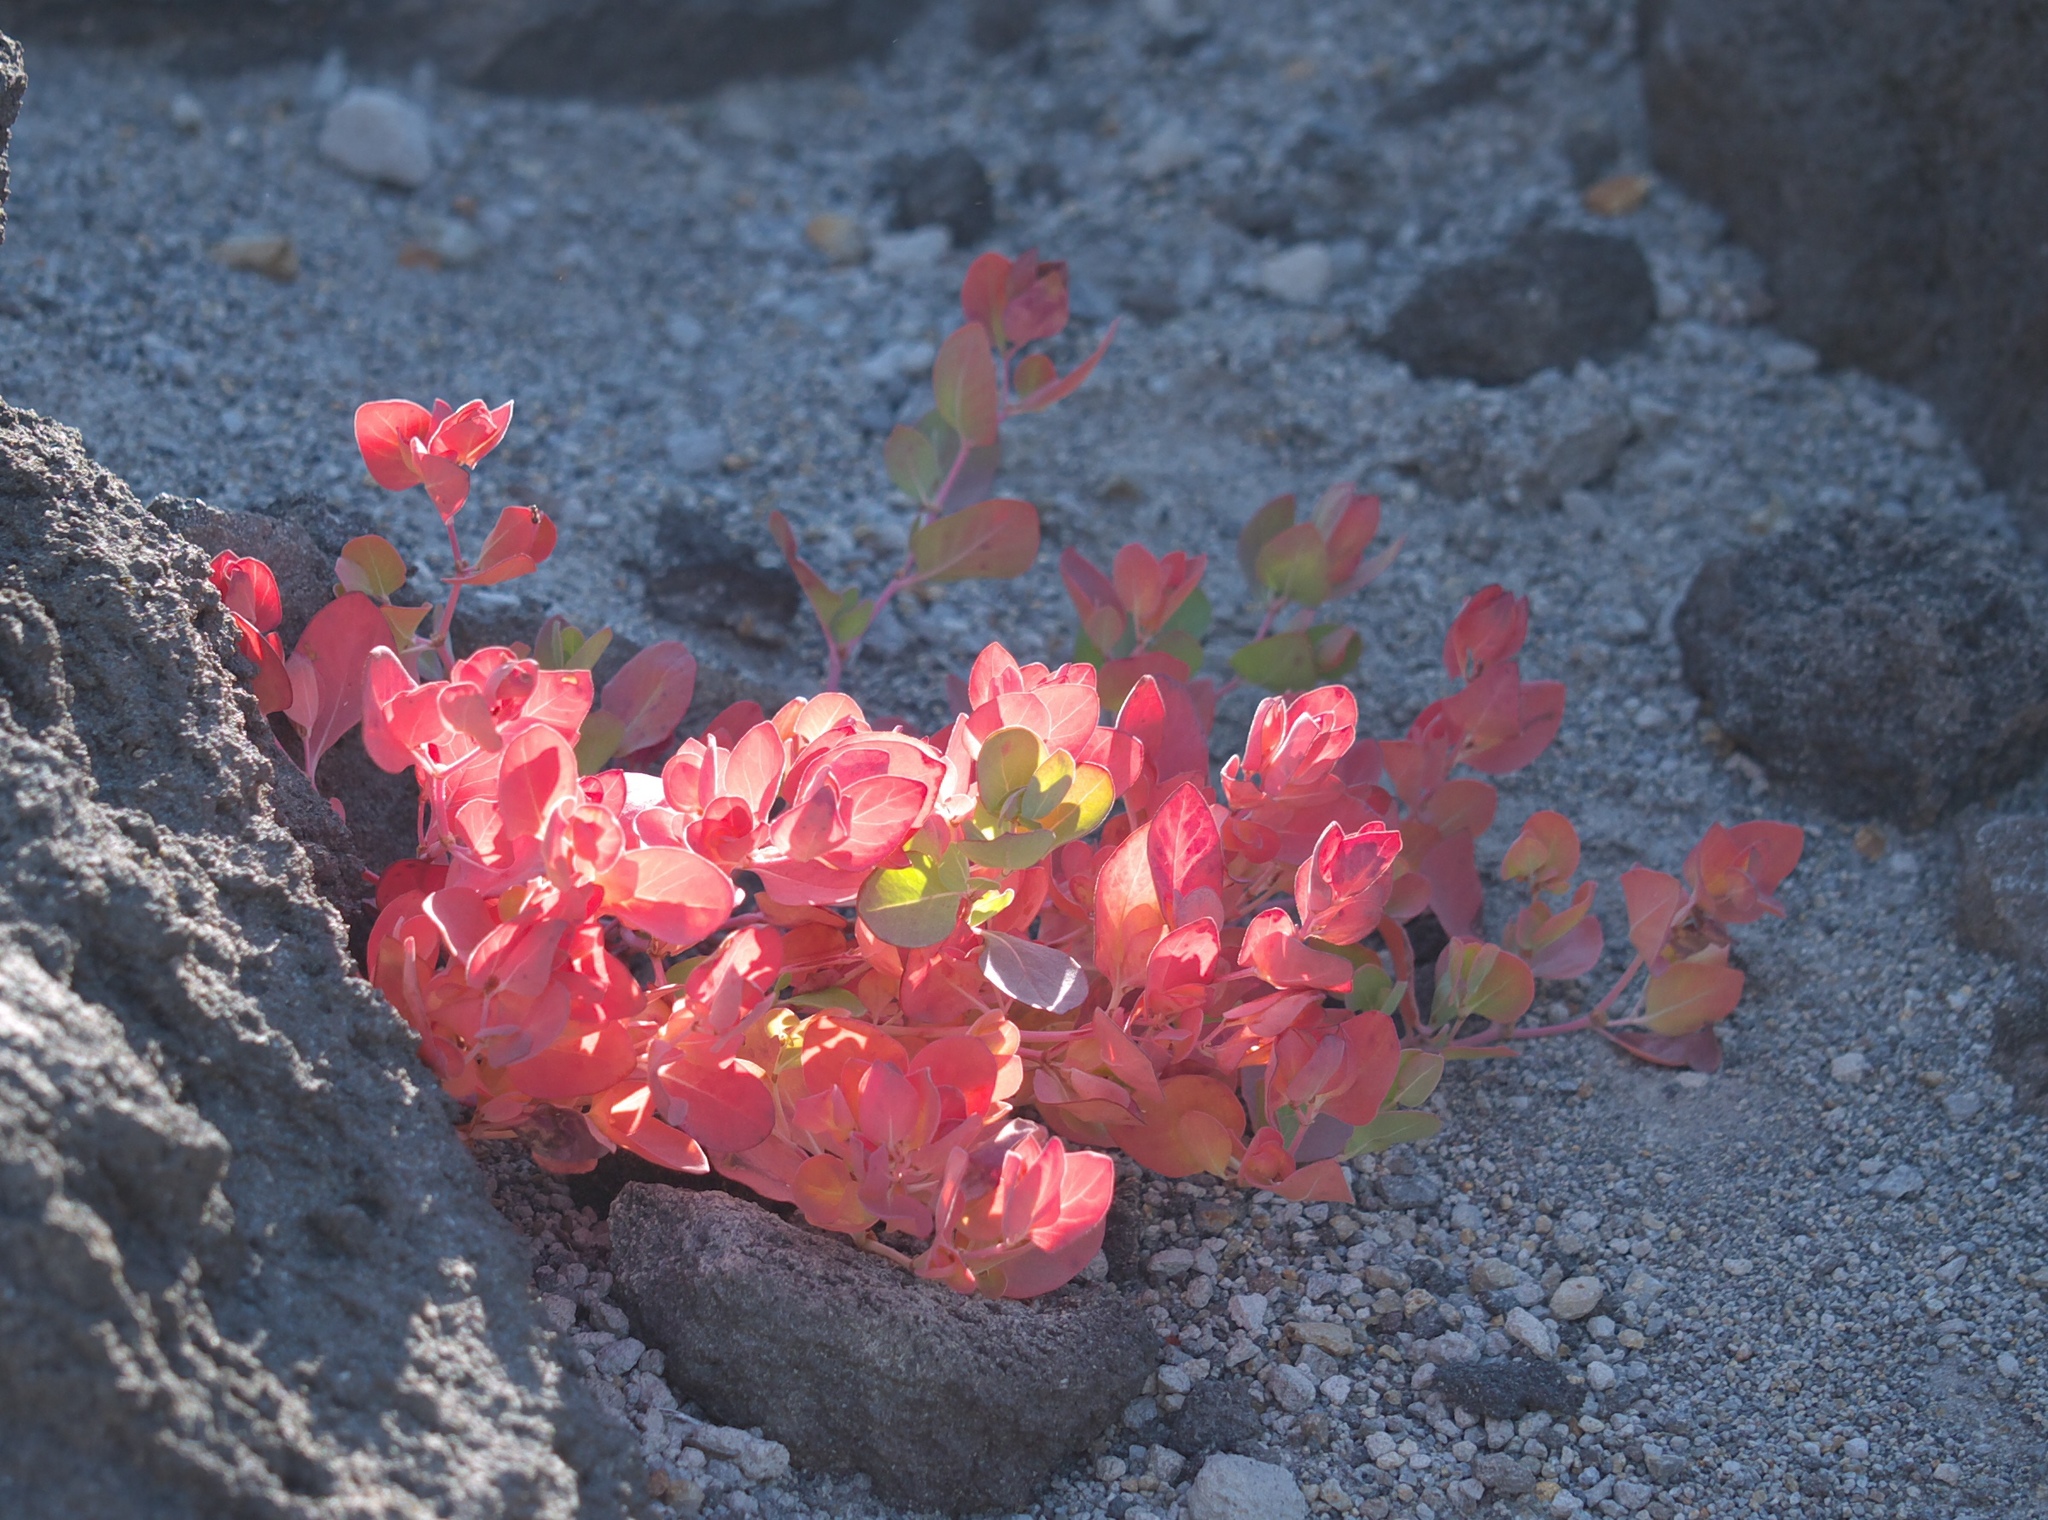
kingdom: Plantae
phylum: Tracheophyta
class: Magnoliopsida
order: Caryophyllales
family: Polygonaceae
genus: Koenigia
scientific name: Koenigia davisiae
